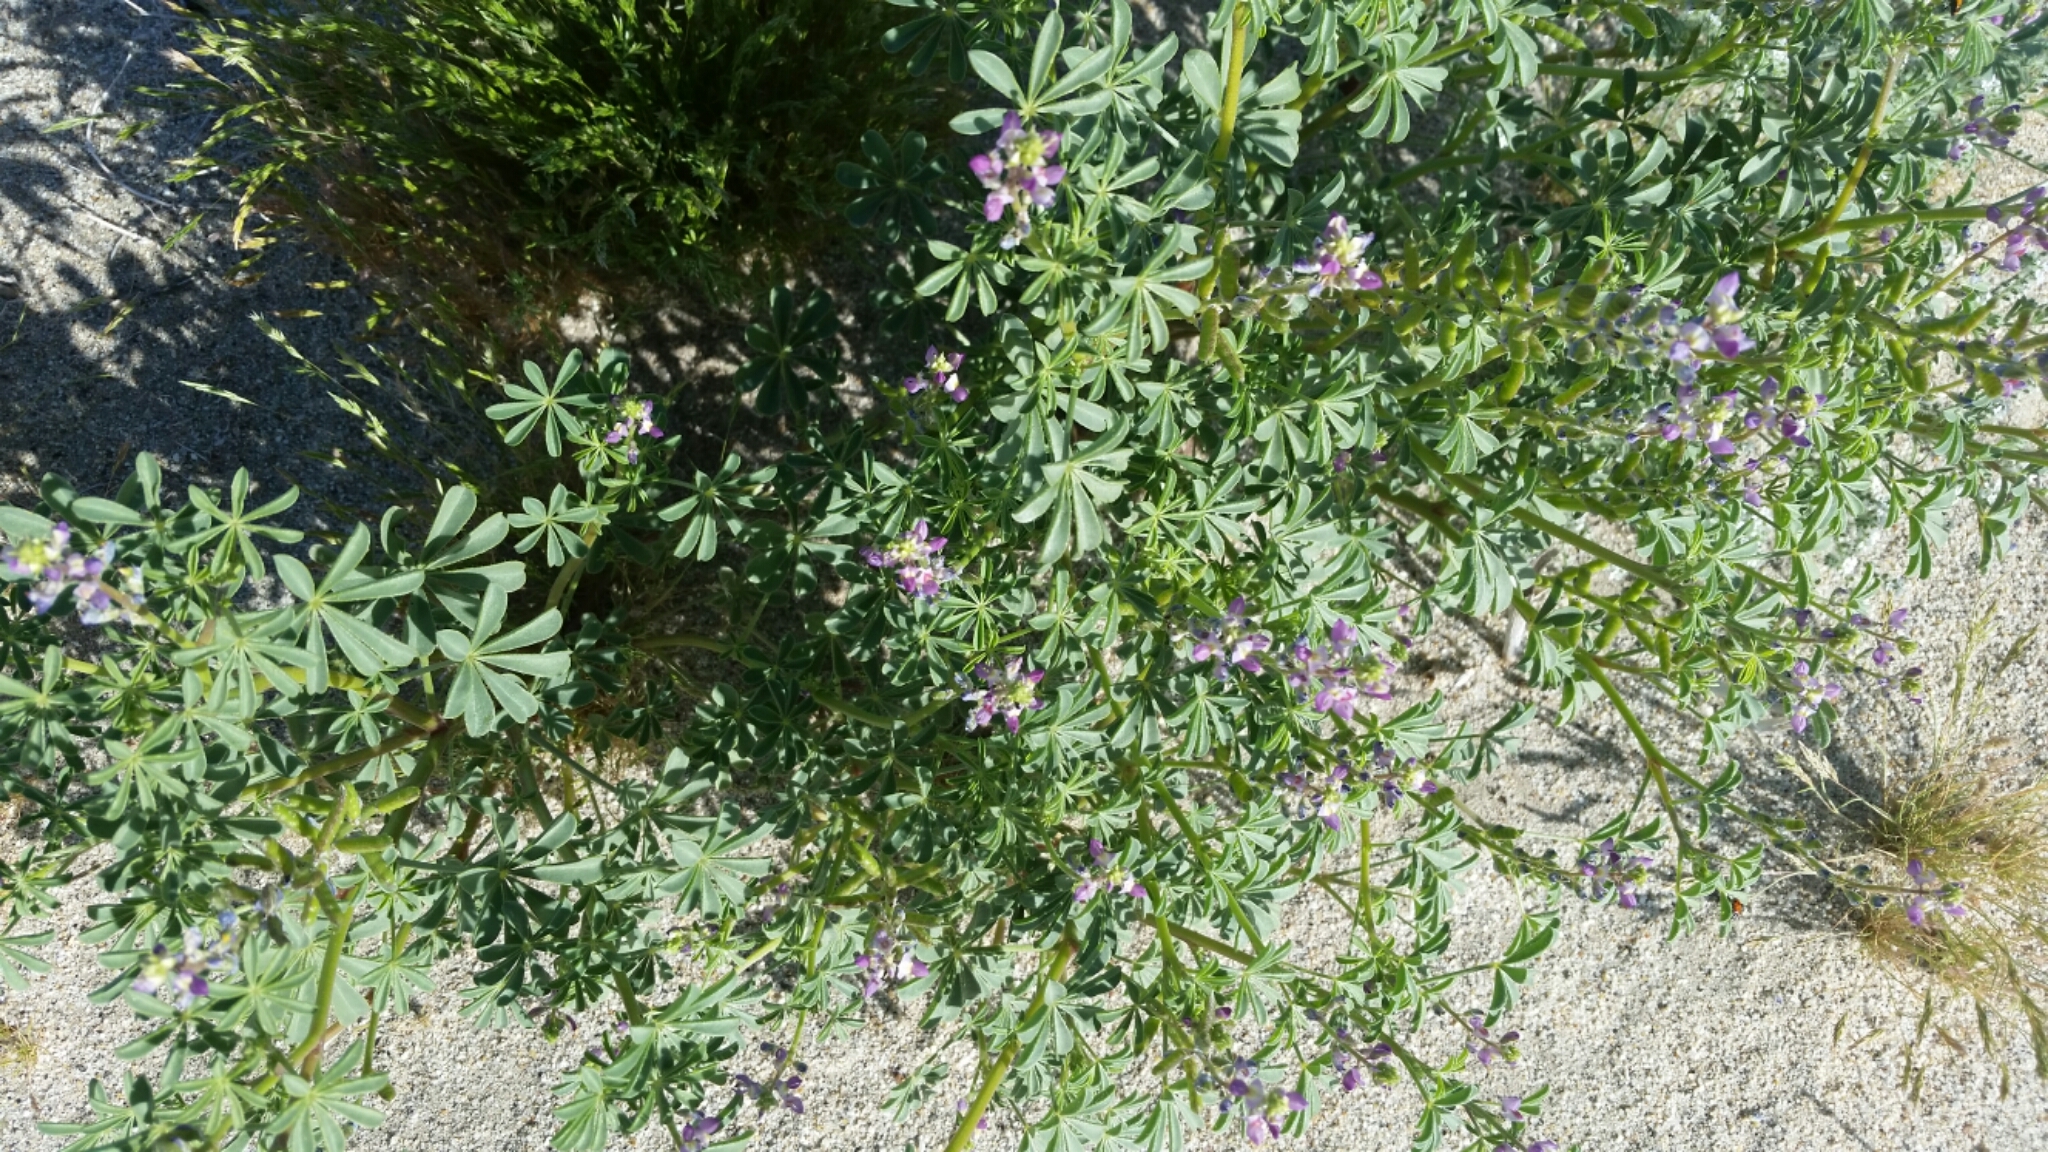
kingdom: Plantae
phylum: Tracheophyta
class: Magnoliopsida
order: Fabales
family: Fabaceae
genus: Lupinus
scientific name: Lupinus arizonicus
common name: Arizona lupine
